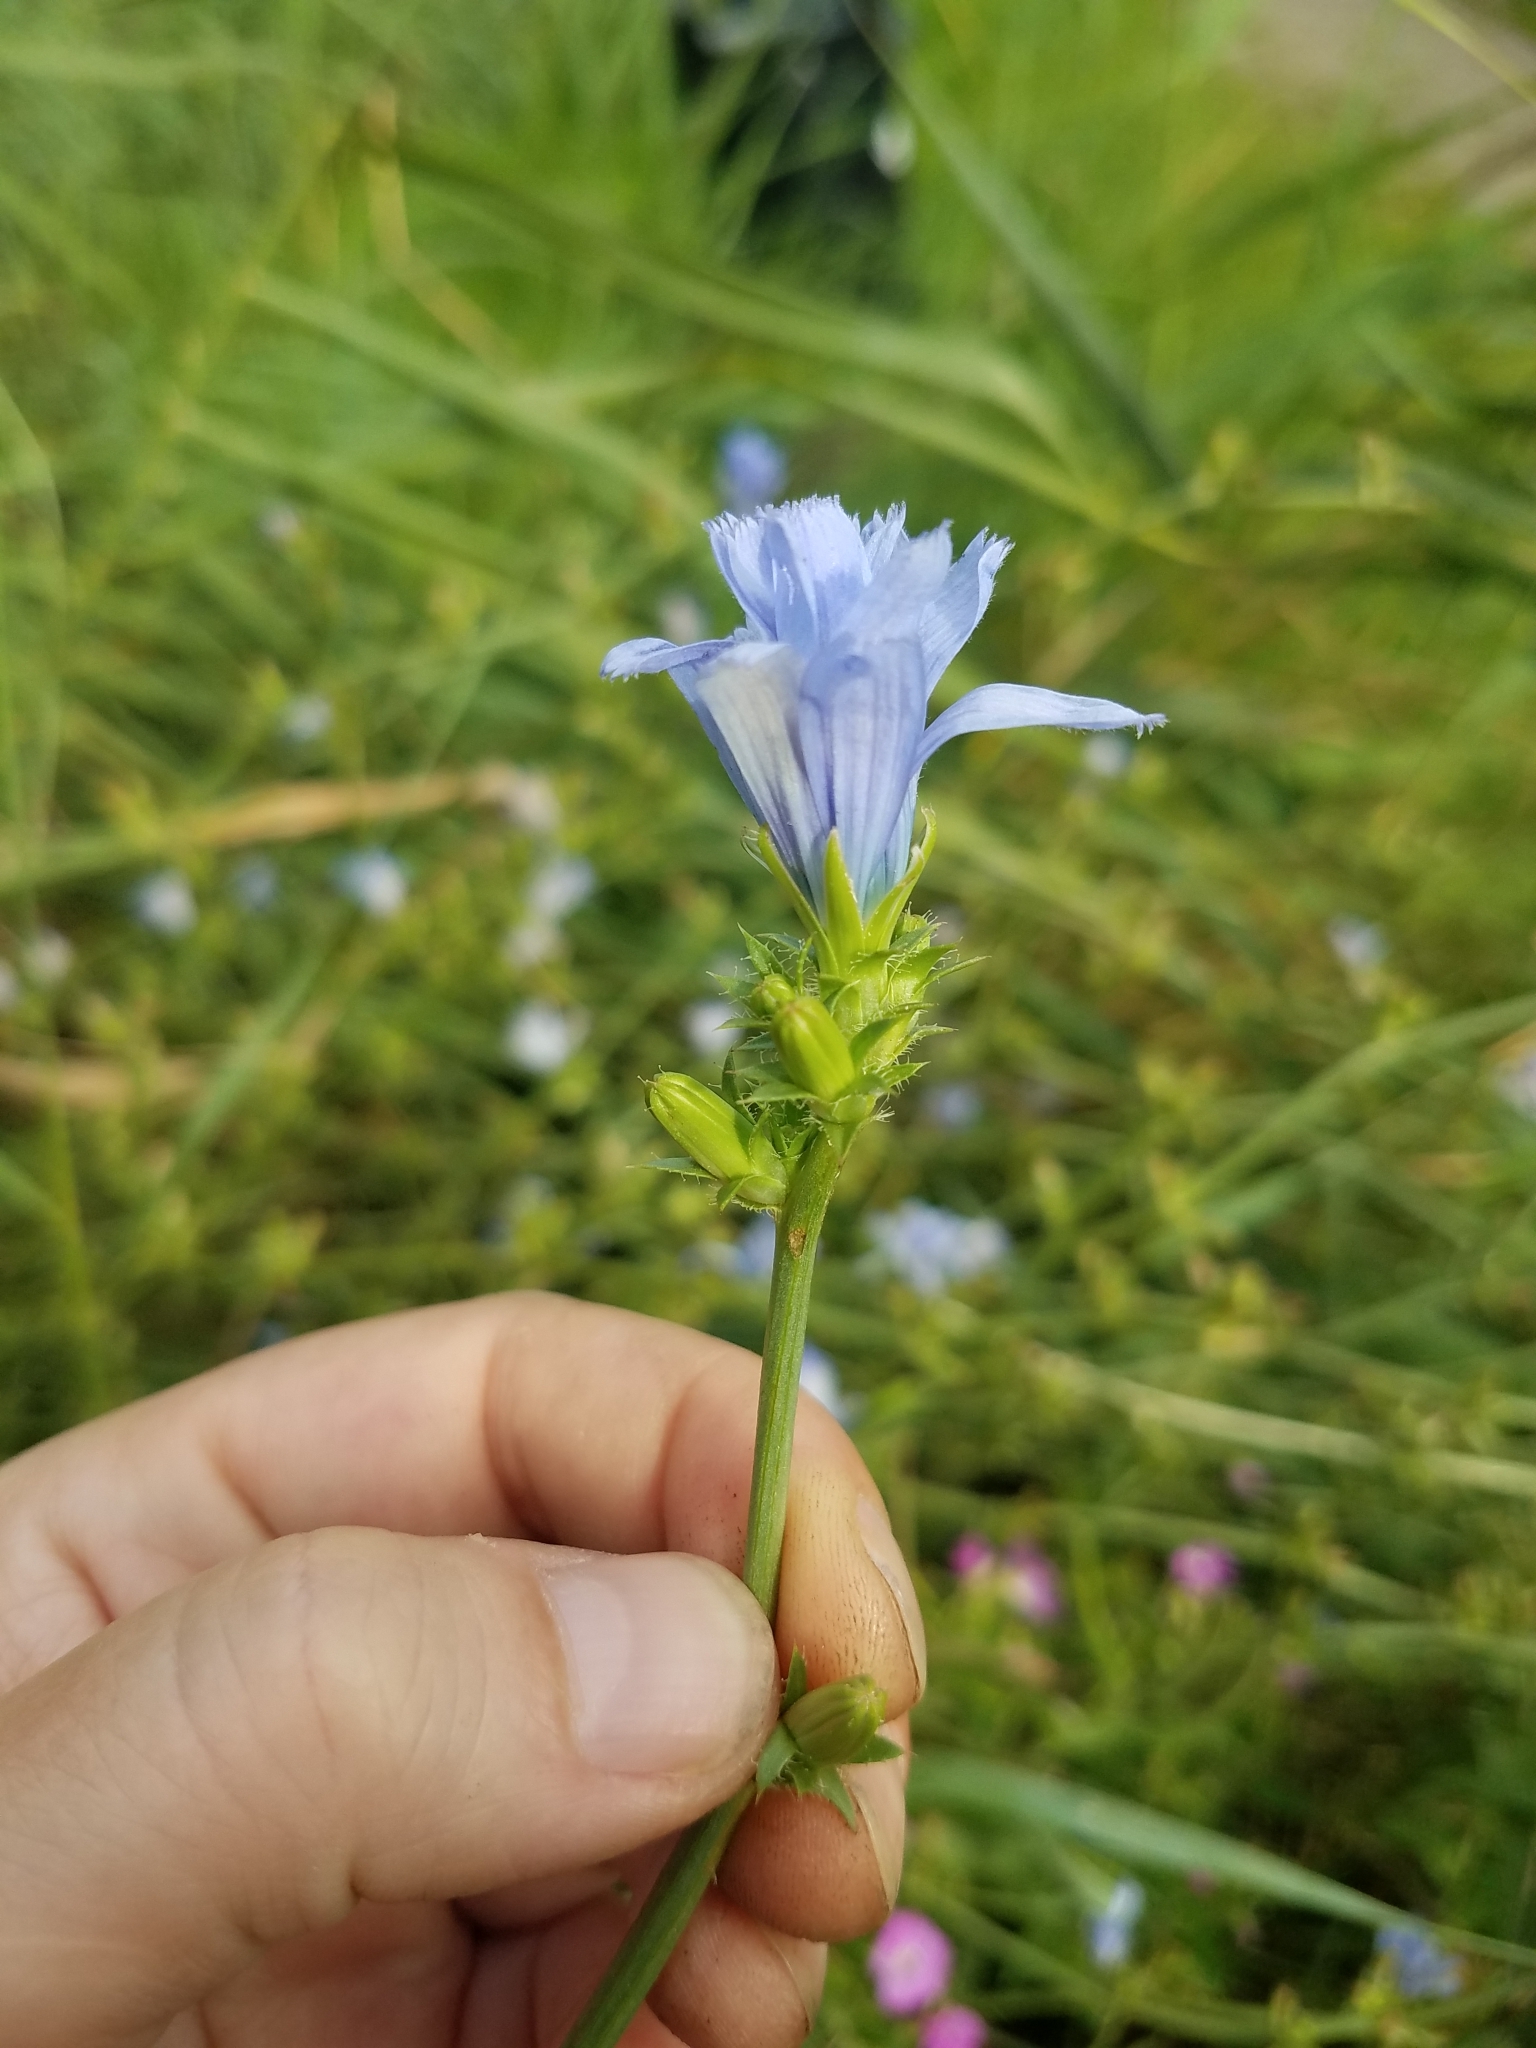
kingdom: Plantae
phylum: Tracheophyta
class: Magnoliopsida
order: Asterales
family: Asteraceae
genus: Cichorium
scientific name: Cichorium intybus
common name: Chicory
